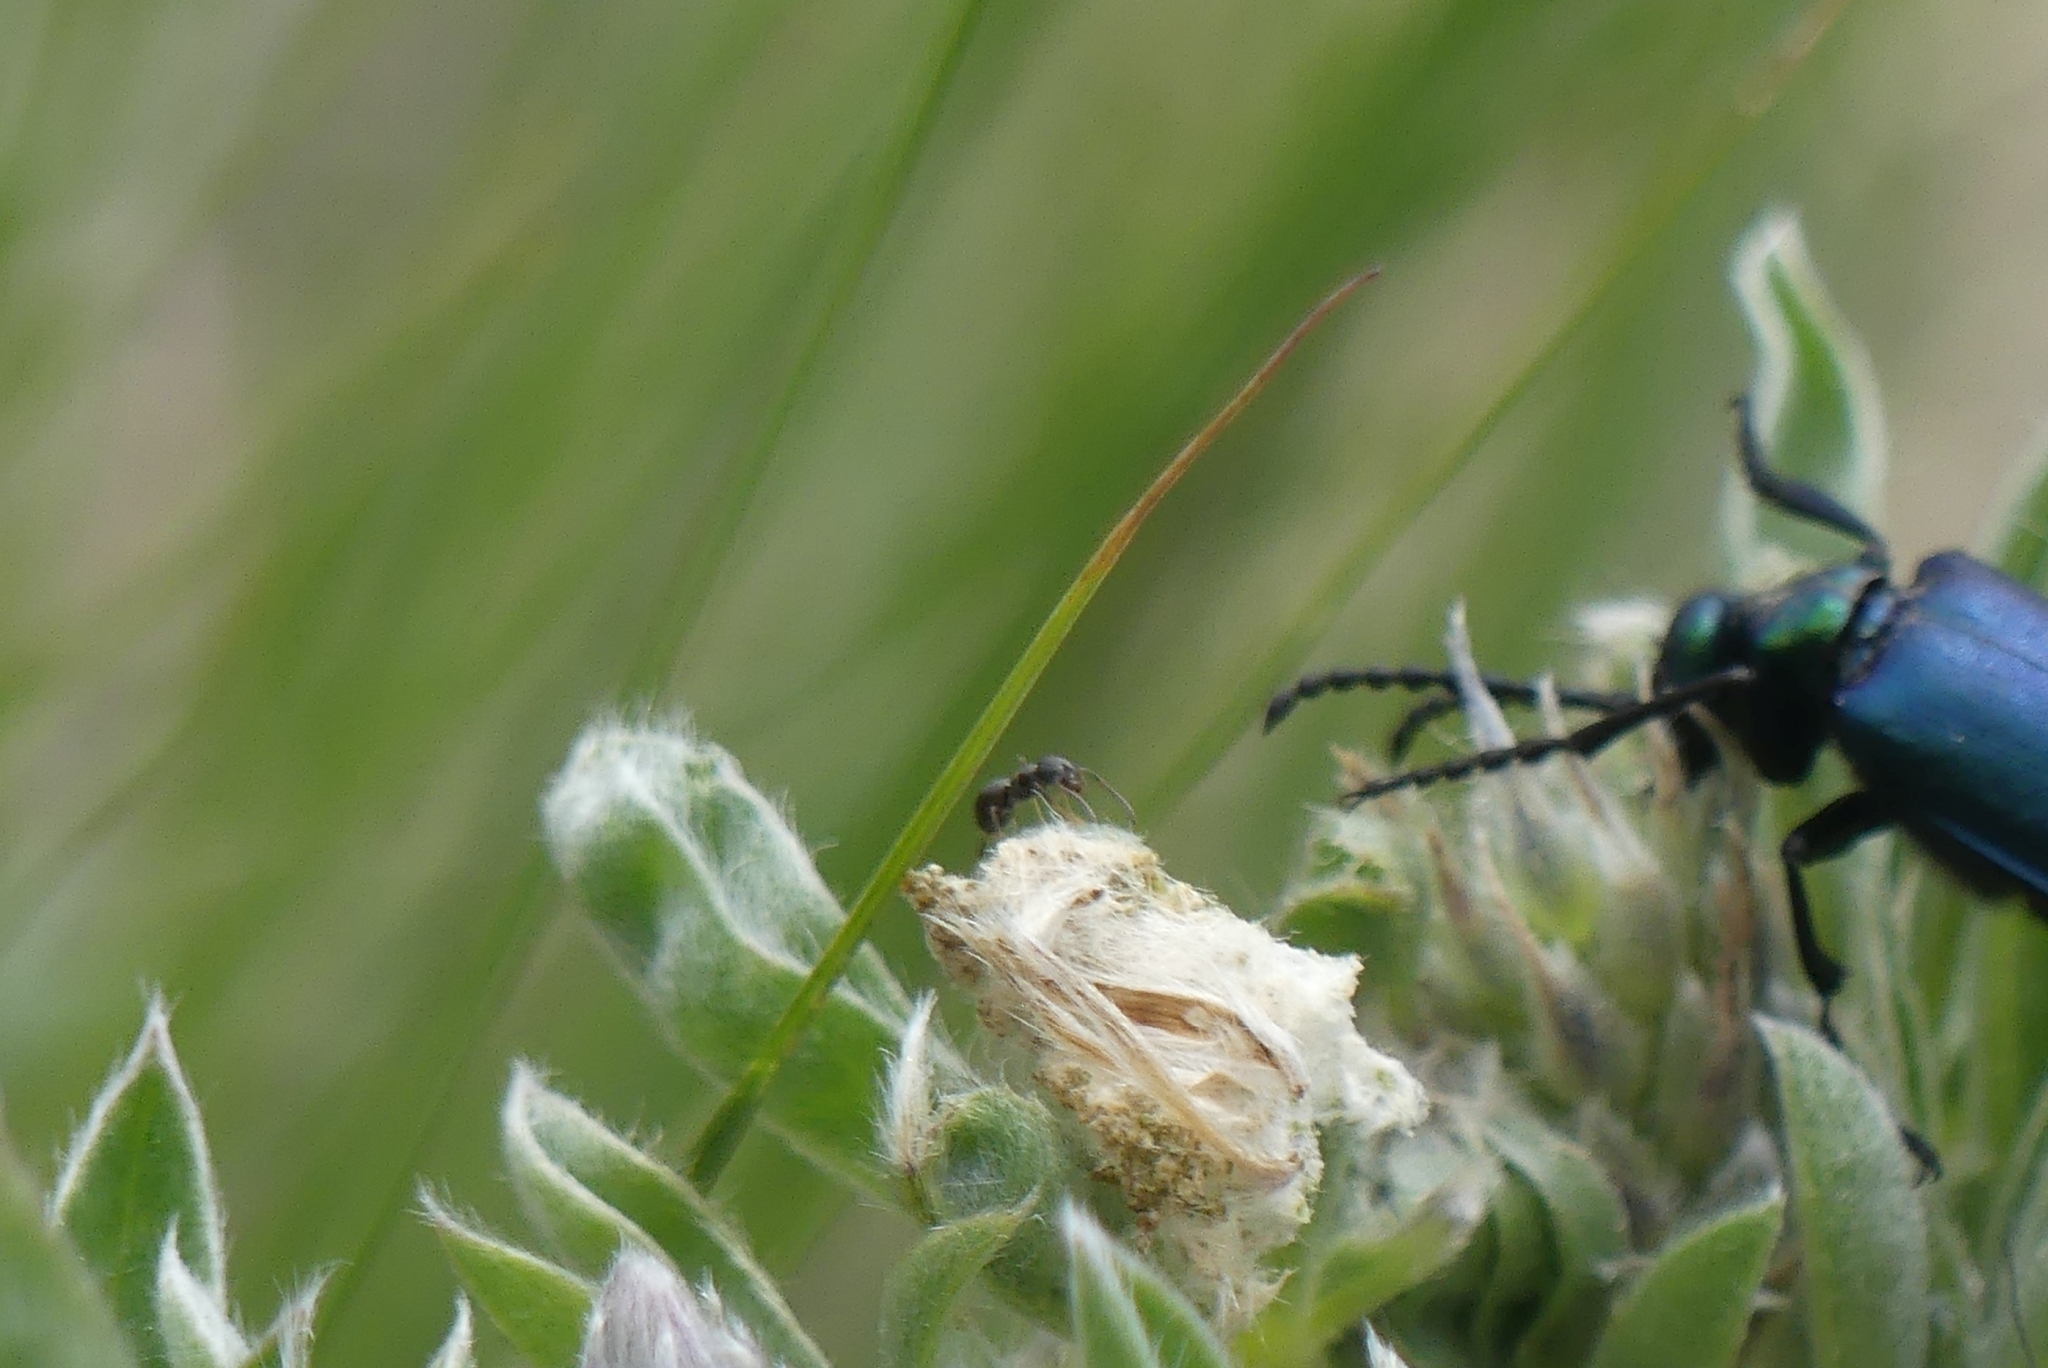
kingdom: Animalia
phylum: Arthropoda
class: Insecta
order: Hymenoptera
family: Formicidae
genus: Tapinoma
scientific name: Tapinoma sessile
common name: Odorous house ant
